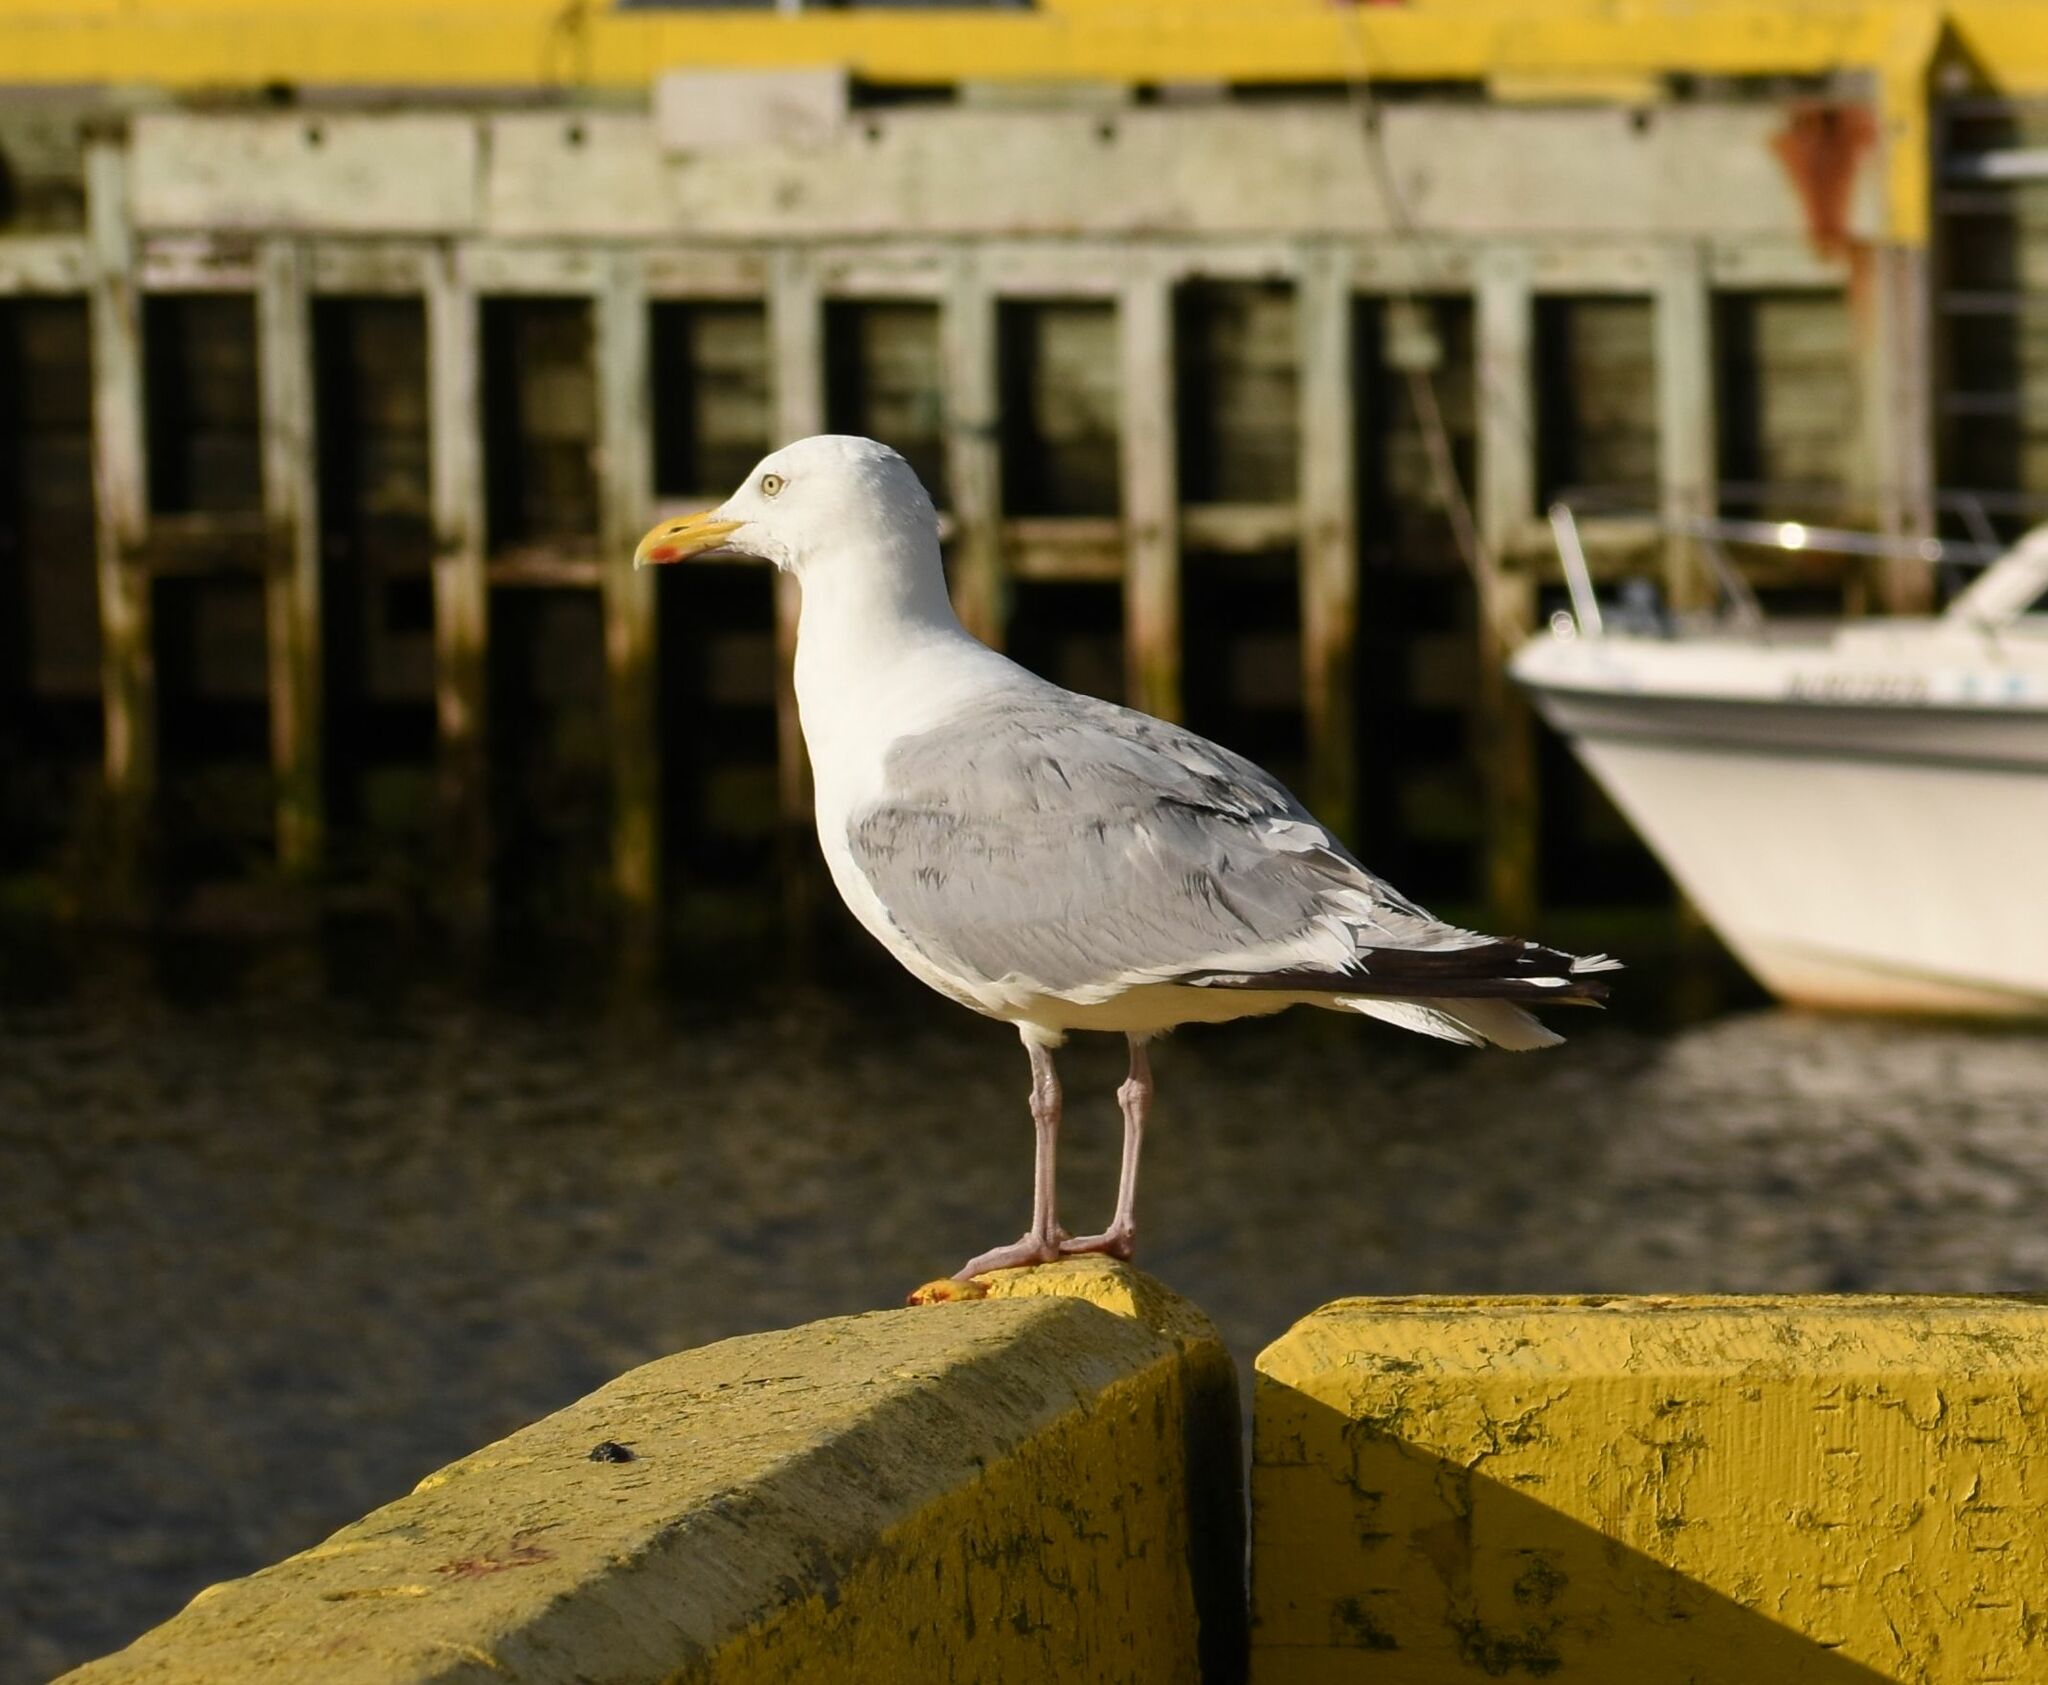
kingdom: Animalia
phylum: Chordata
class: Aves
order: Charadriiformes
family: Laridae
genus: Larus
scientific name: Larus argentatus
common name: Herring gull
